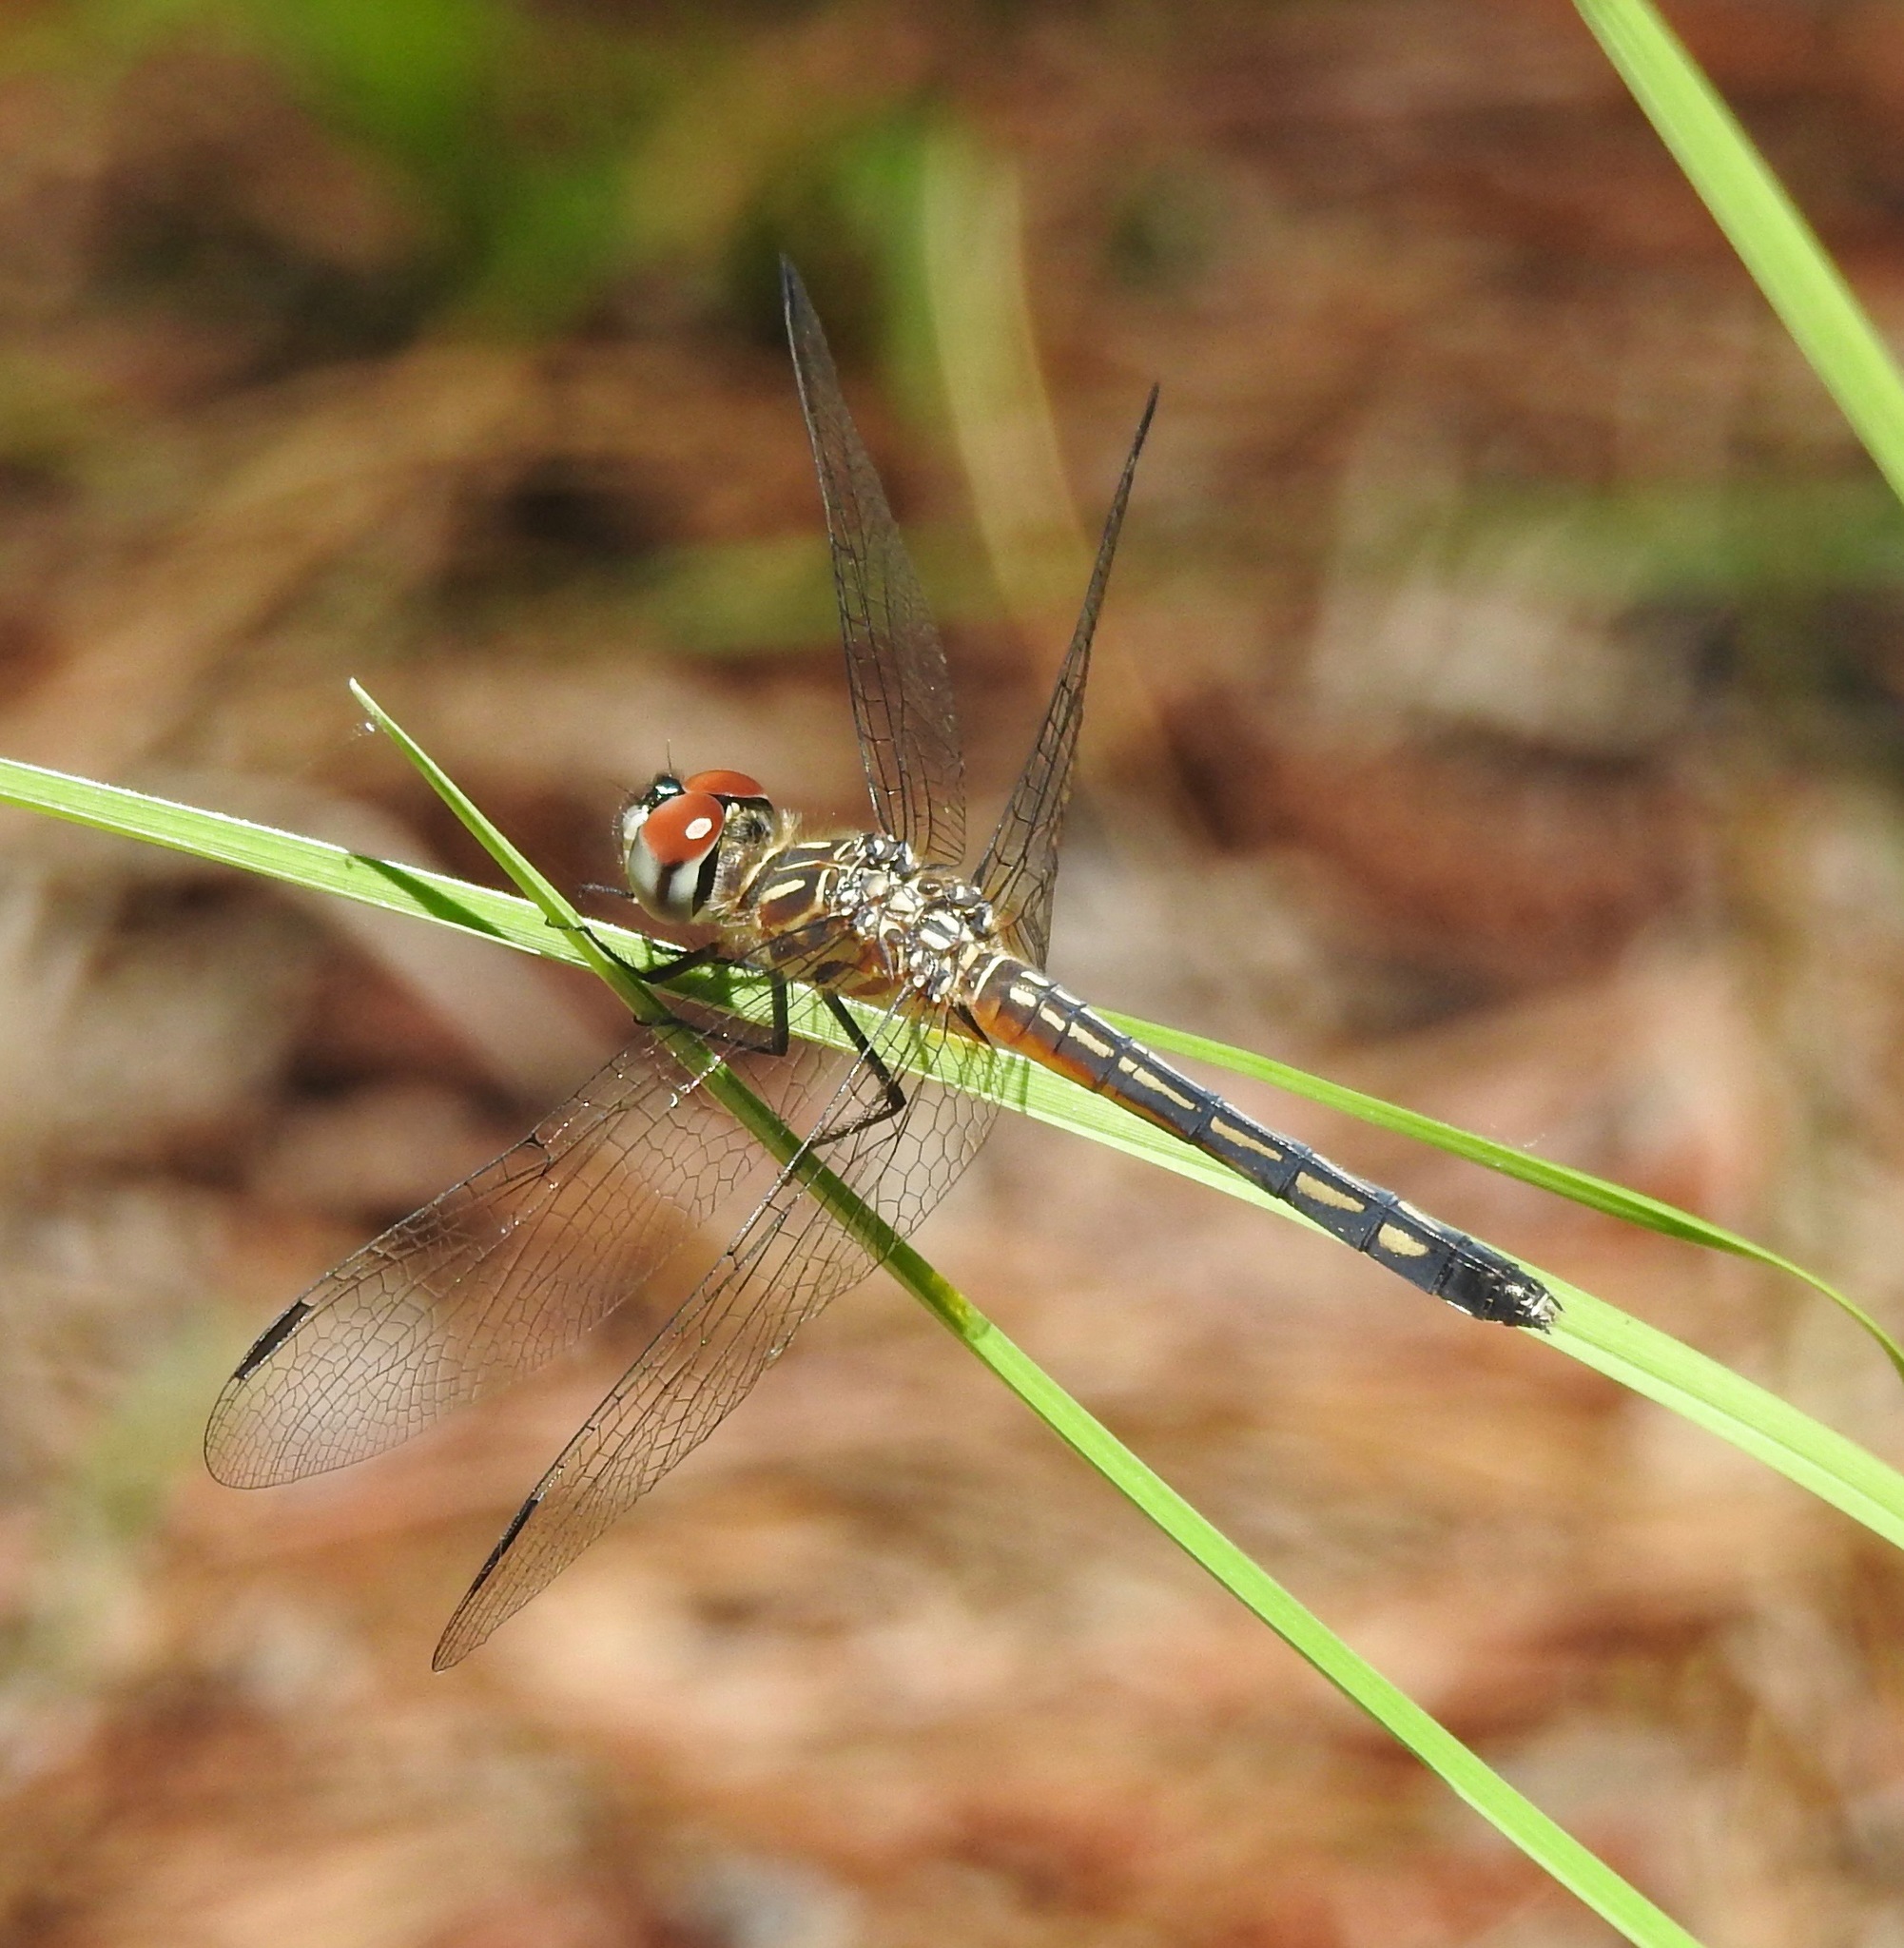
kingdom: Animalia
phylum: Arthropoda
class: Insecta
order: Odonata
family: Libellulidae
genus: Pachydiplax
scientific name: Pachydiplax longipennis
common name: Blue dasher
